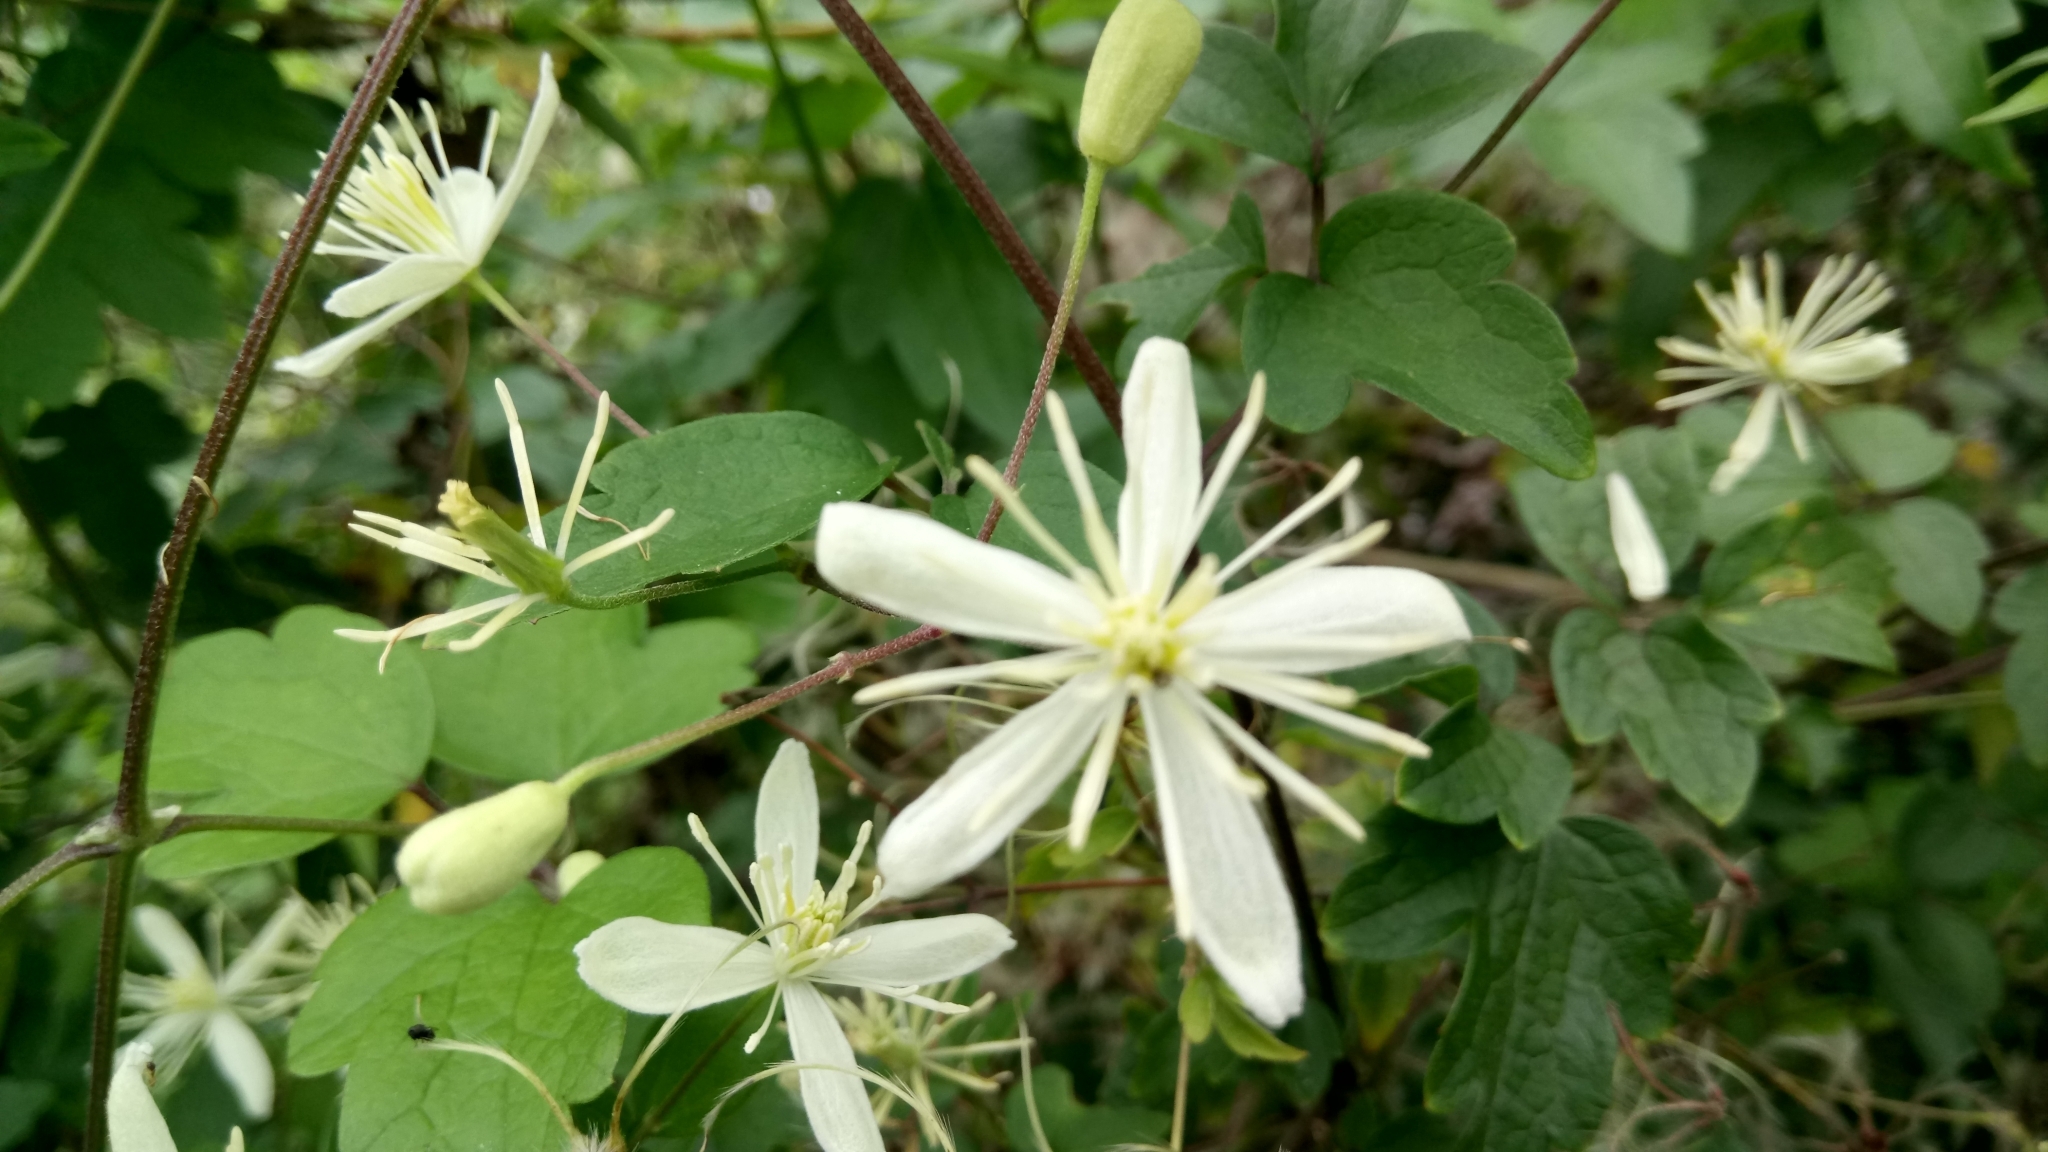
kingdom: Plantae
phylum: Tracheophyta
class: Magnoliopsida
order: Ranunculales
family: Ranunculaceae
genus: Clematis
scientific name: Clematis grata
